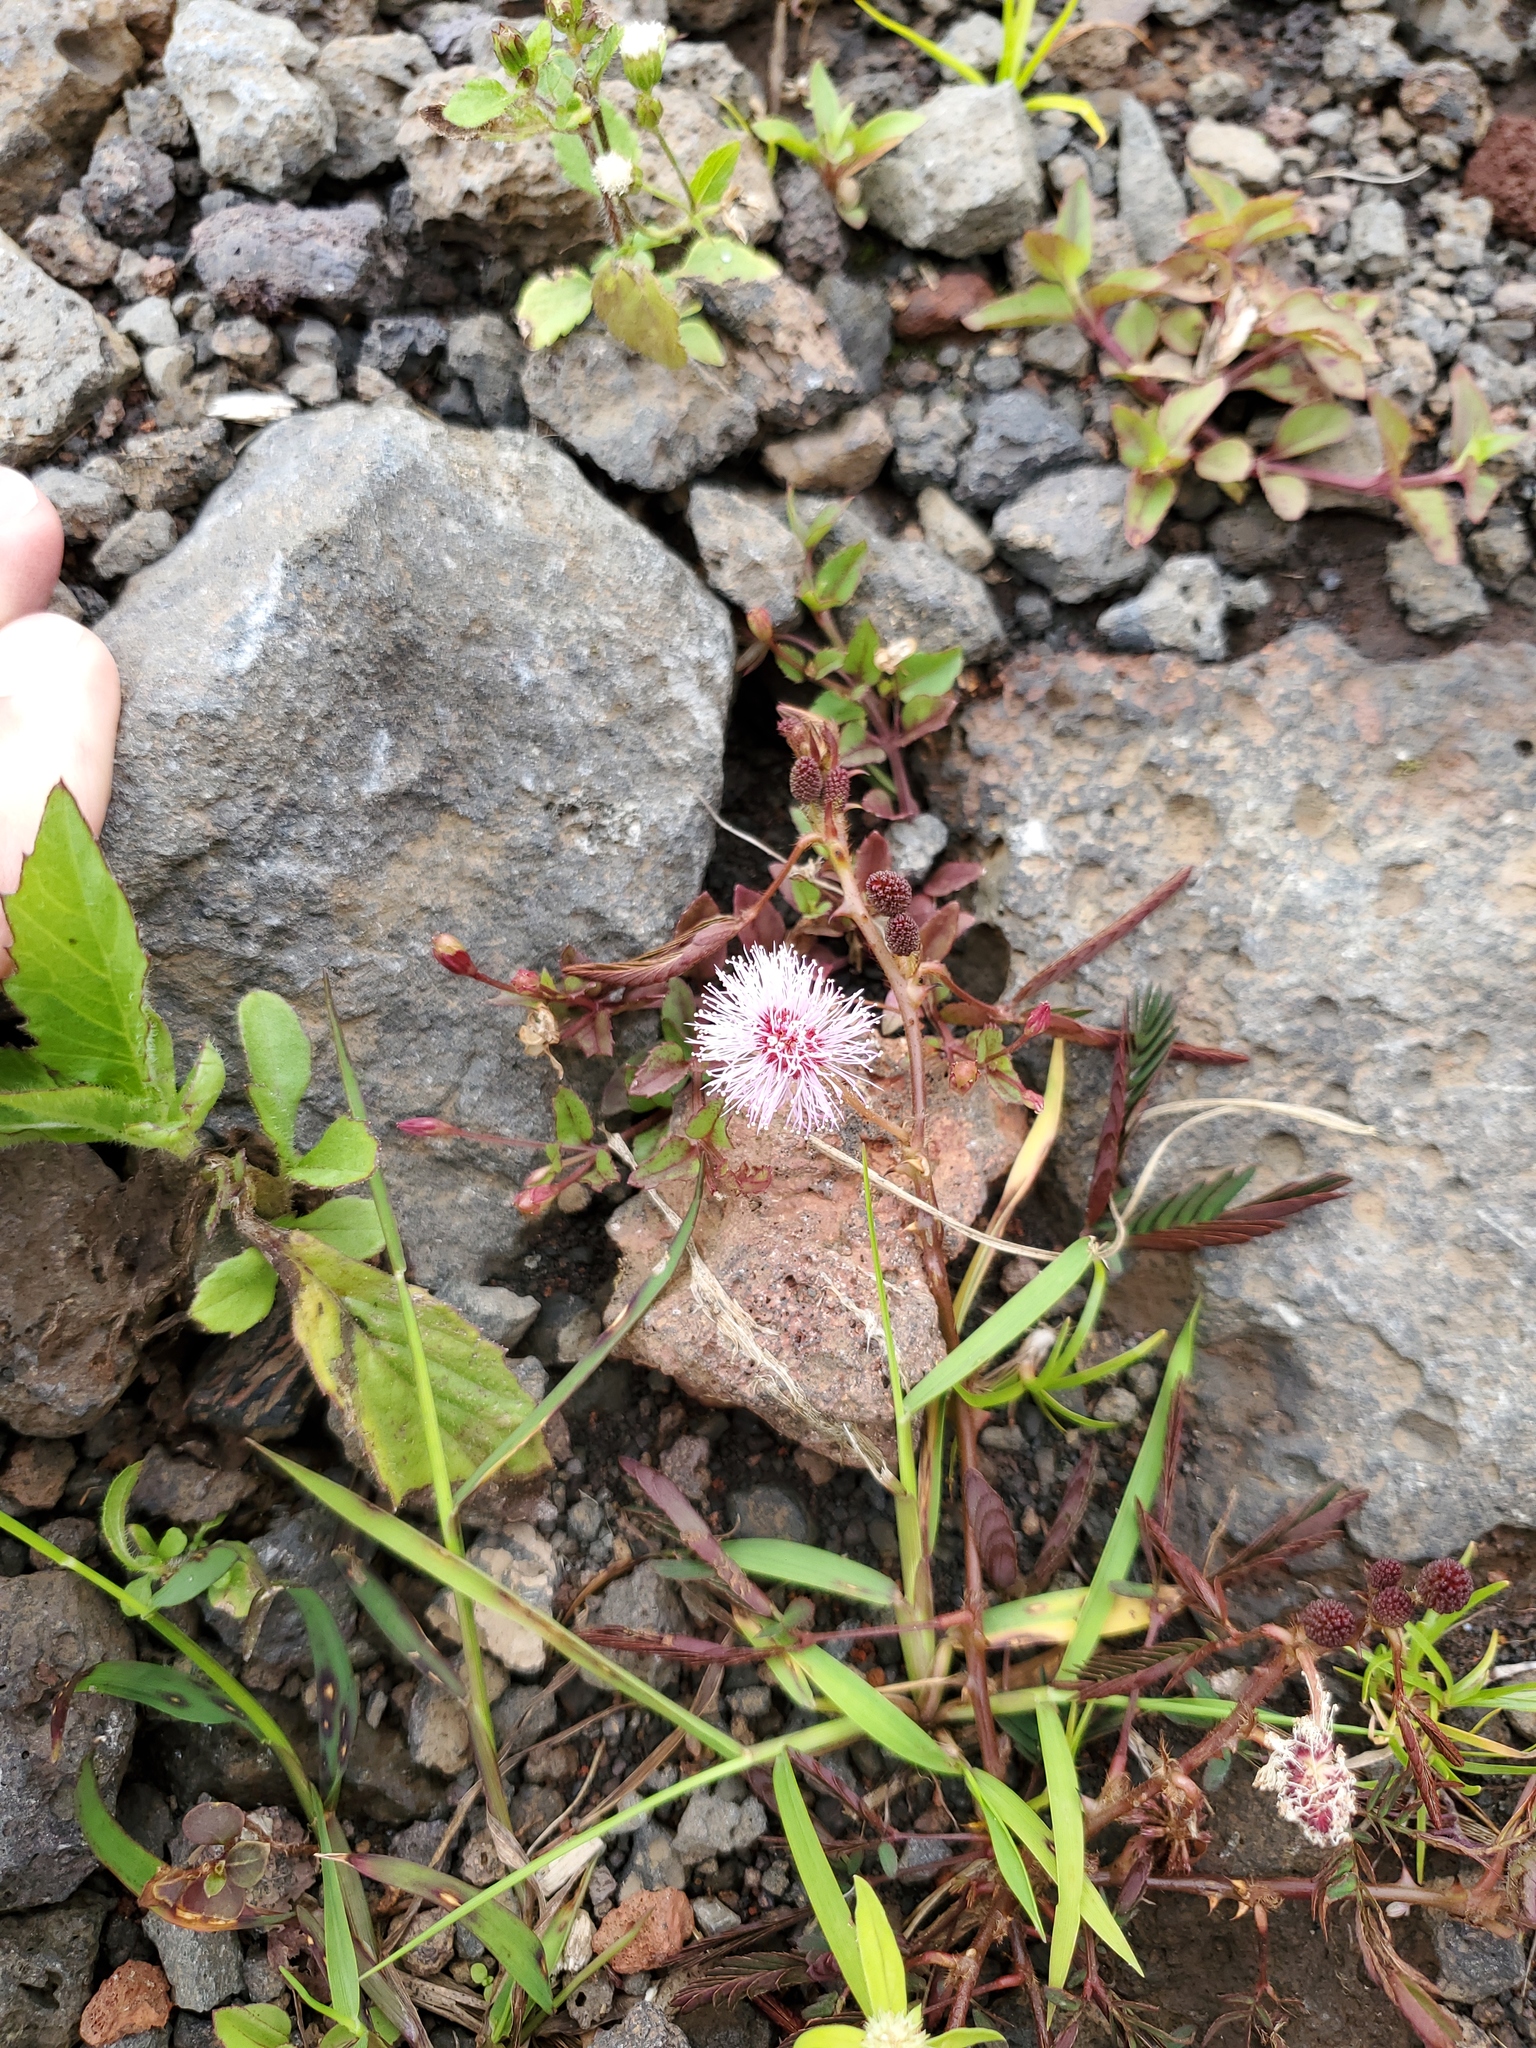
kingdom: Plantae
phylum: Tracheophyta
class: Magnoliopsida
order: Fabales
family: Fabaceae
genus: Mimosa
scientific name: Mimosa pudica
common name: Sensitive plant
